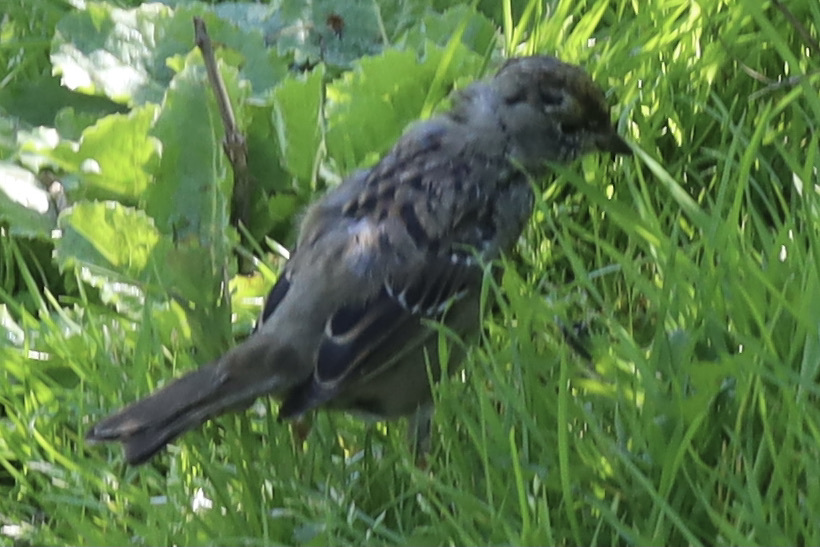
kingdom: Animalia
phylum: Chordata
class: Aves
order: Passeriformes
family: Passerellidae
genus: Zonotrichia
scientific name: Zonotrichia atricapilla
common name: Golden-crowned sparrow
